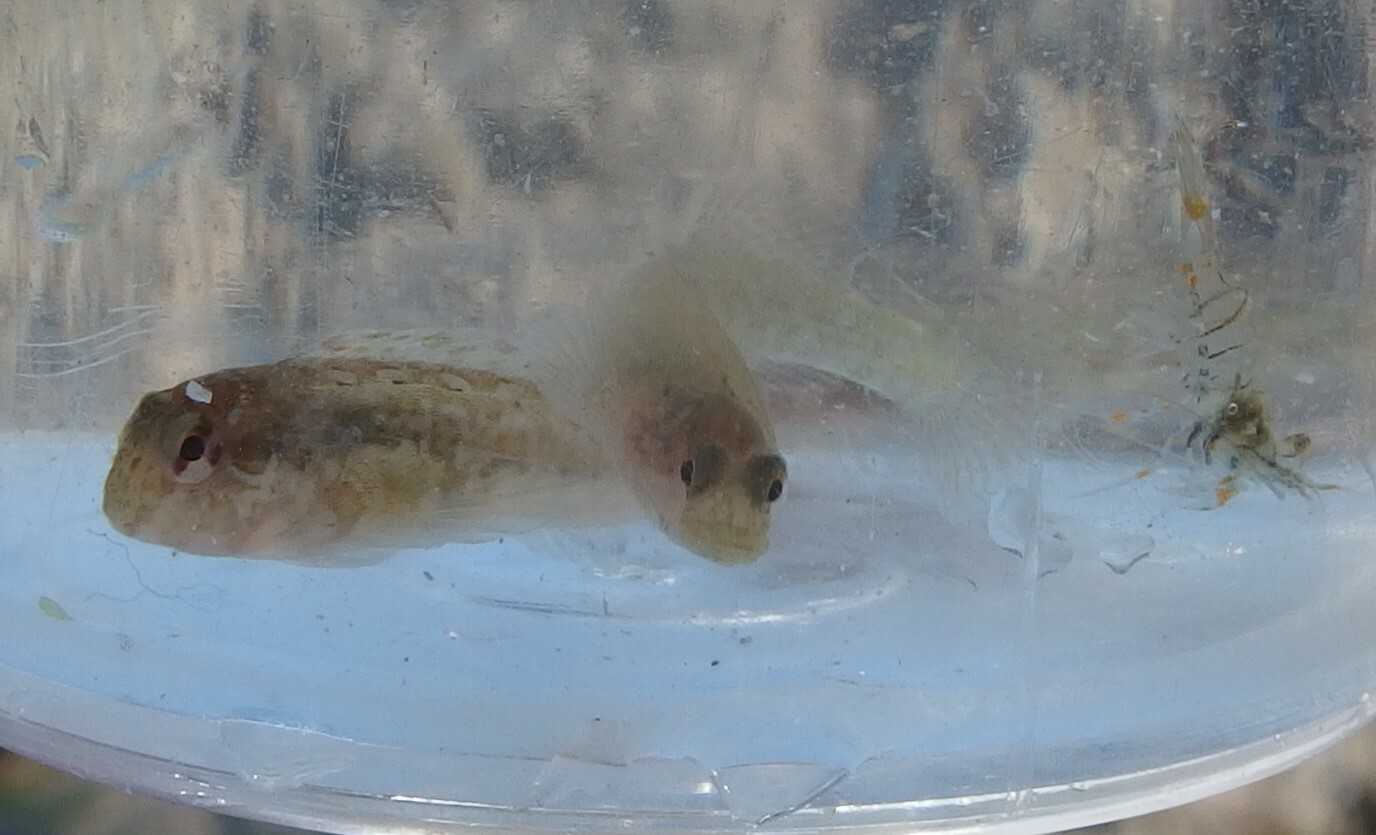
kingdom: Animalia
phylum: Chordata
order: Perciformes
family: Blenniidae
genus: Lipophrys
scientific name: Lipophrys pholis
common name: Shanny
